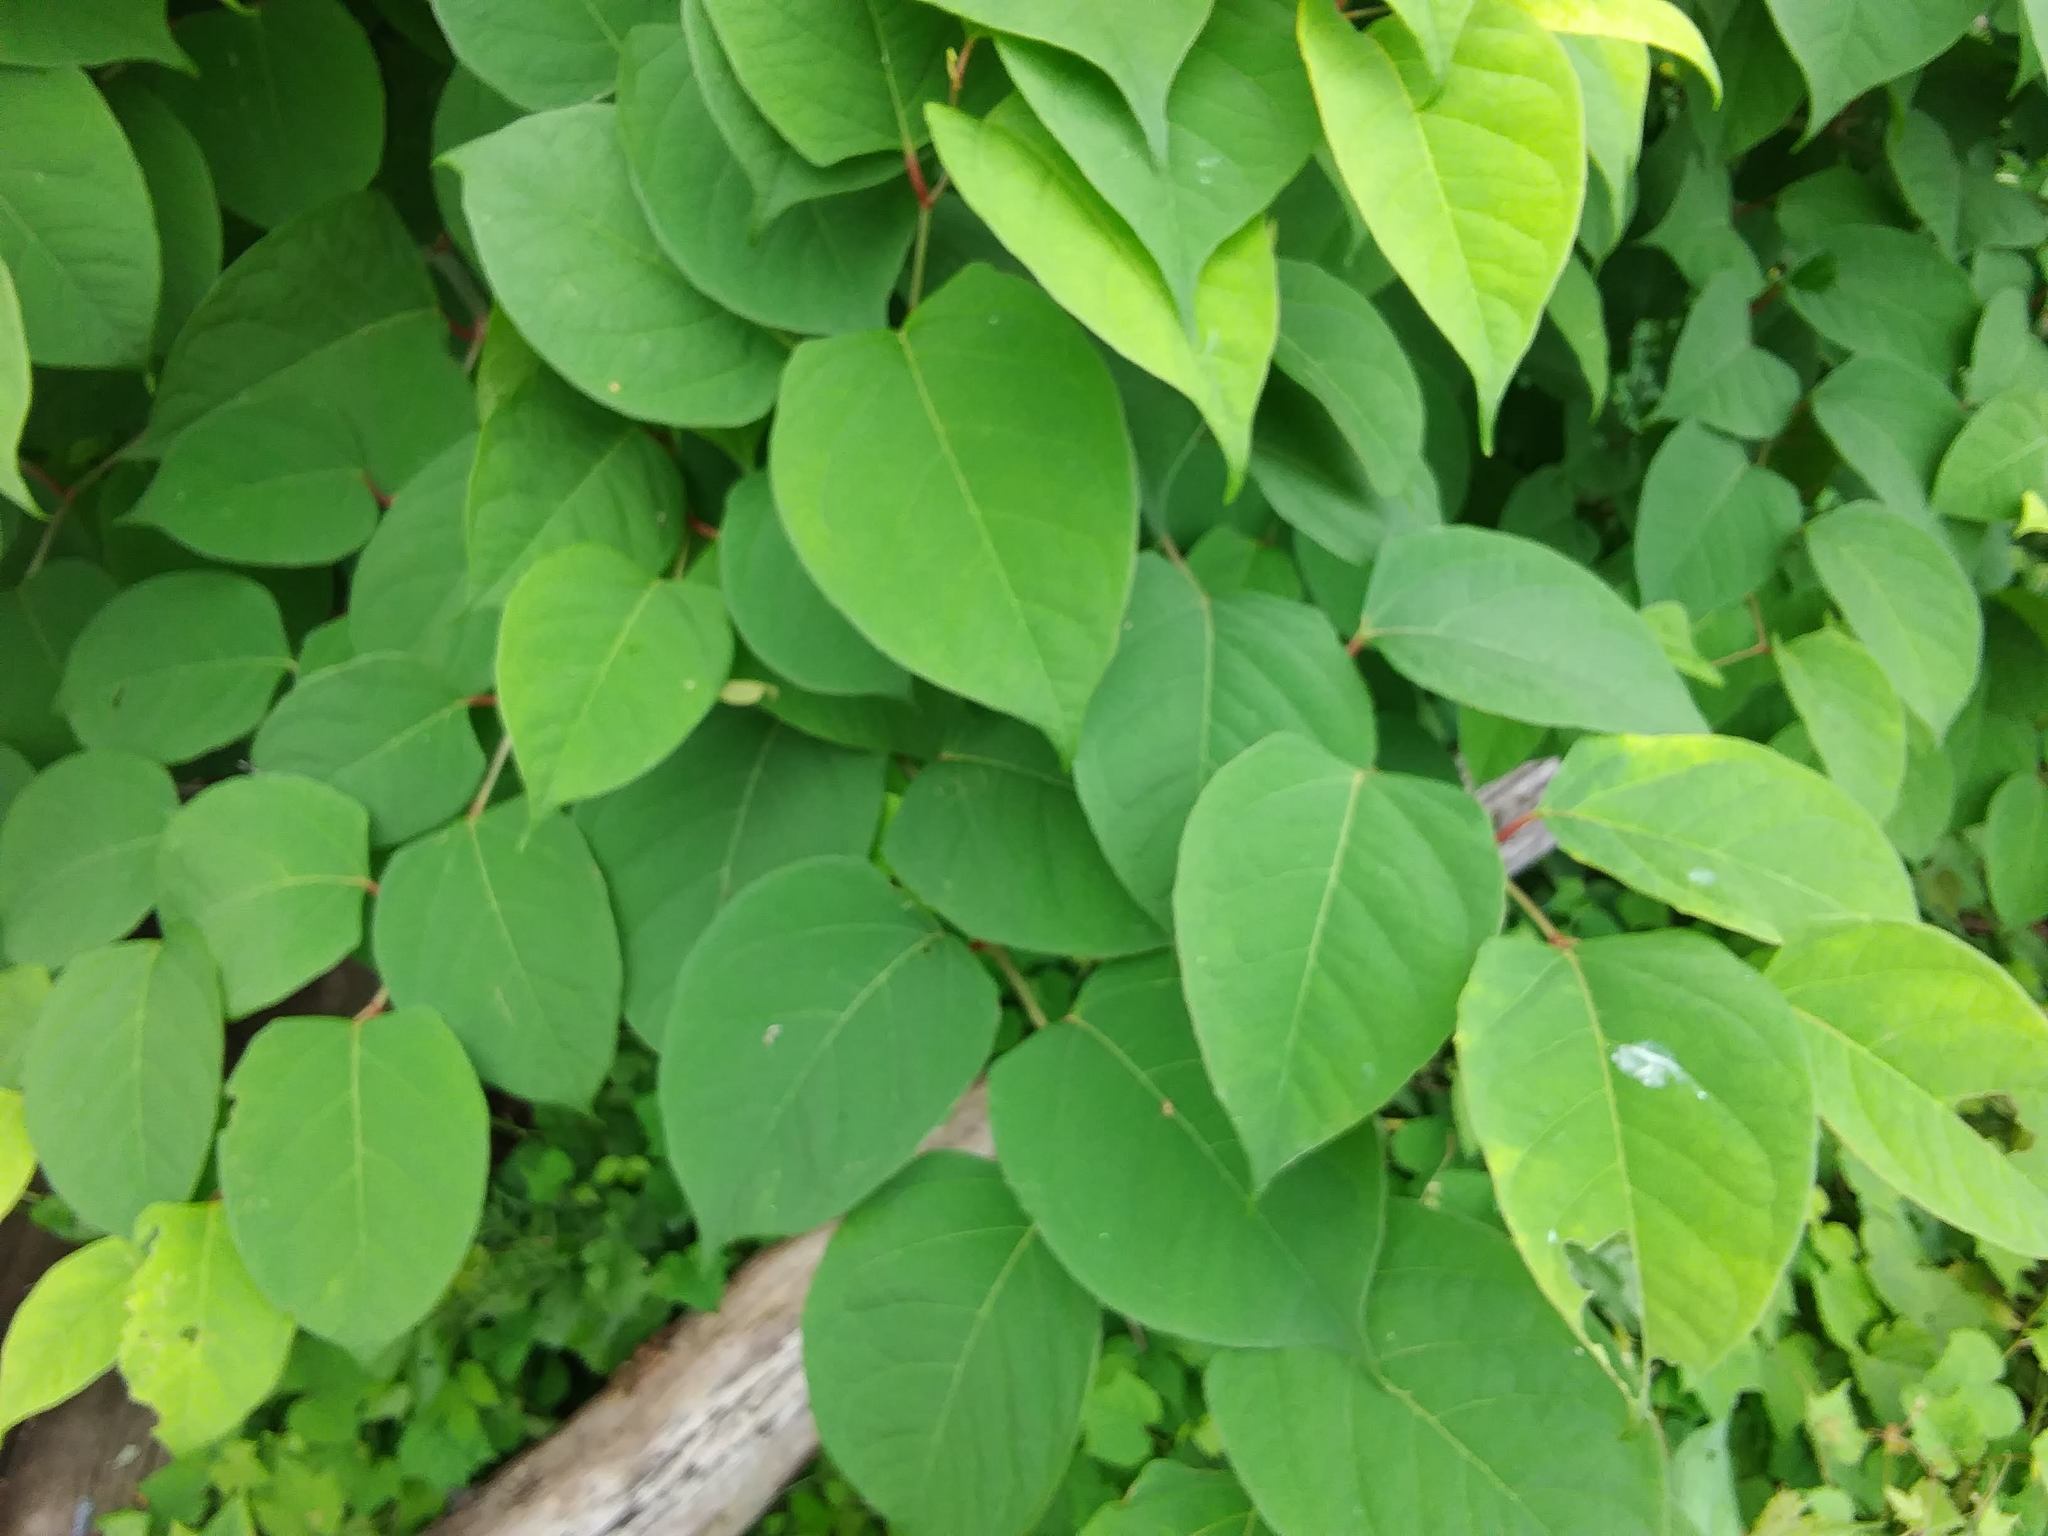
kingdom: Plantae
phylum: Tracheophyta
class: Magnoliopsida
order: Caryophyllales
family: Polygonaceae
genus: Reynoutria
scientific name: Reynoutria japonica
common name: Japanese knotweed
